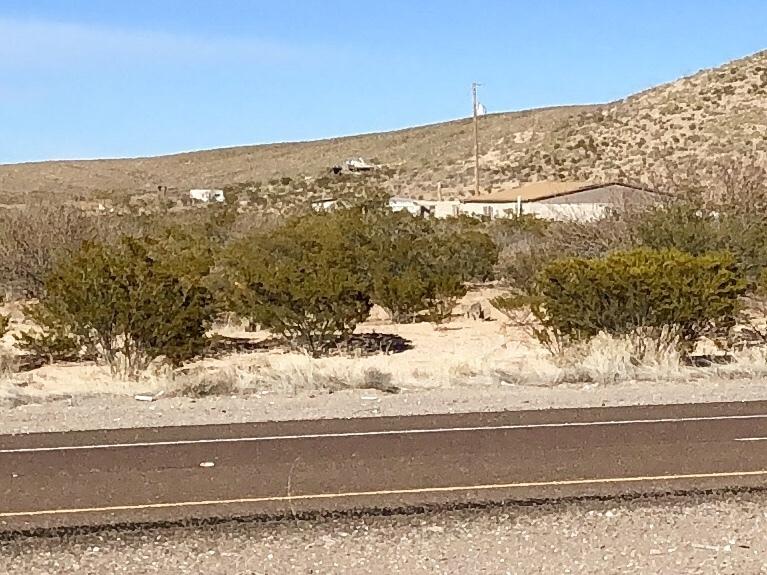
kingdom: Plantae
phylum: Tracheophyta
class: Magnoliopsida
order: Zygophyllales
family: Zygophyllaceae
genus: Larrea
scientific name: Larrea tridentata
